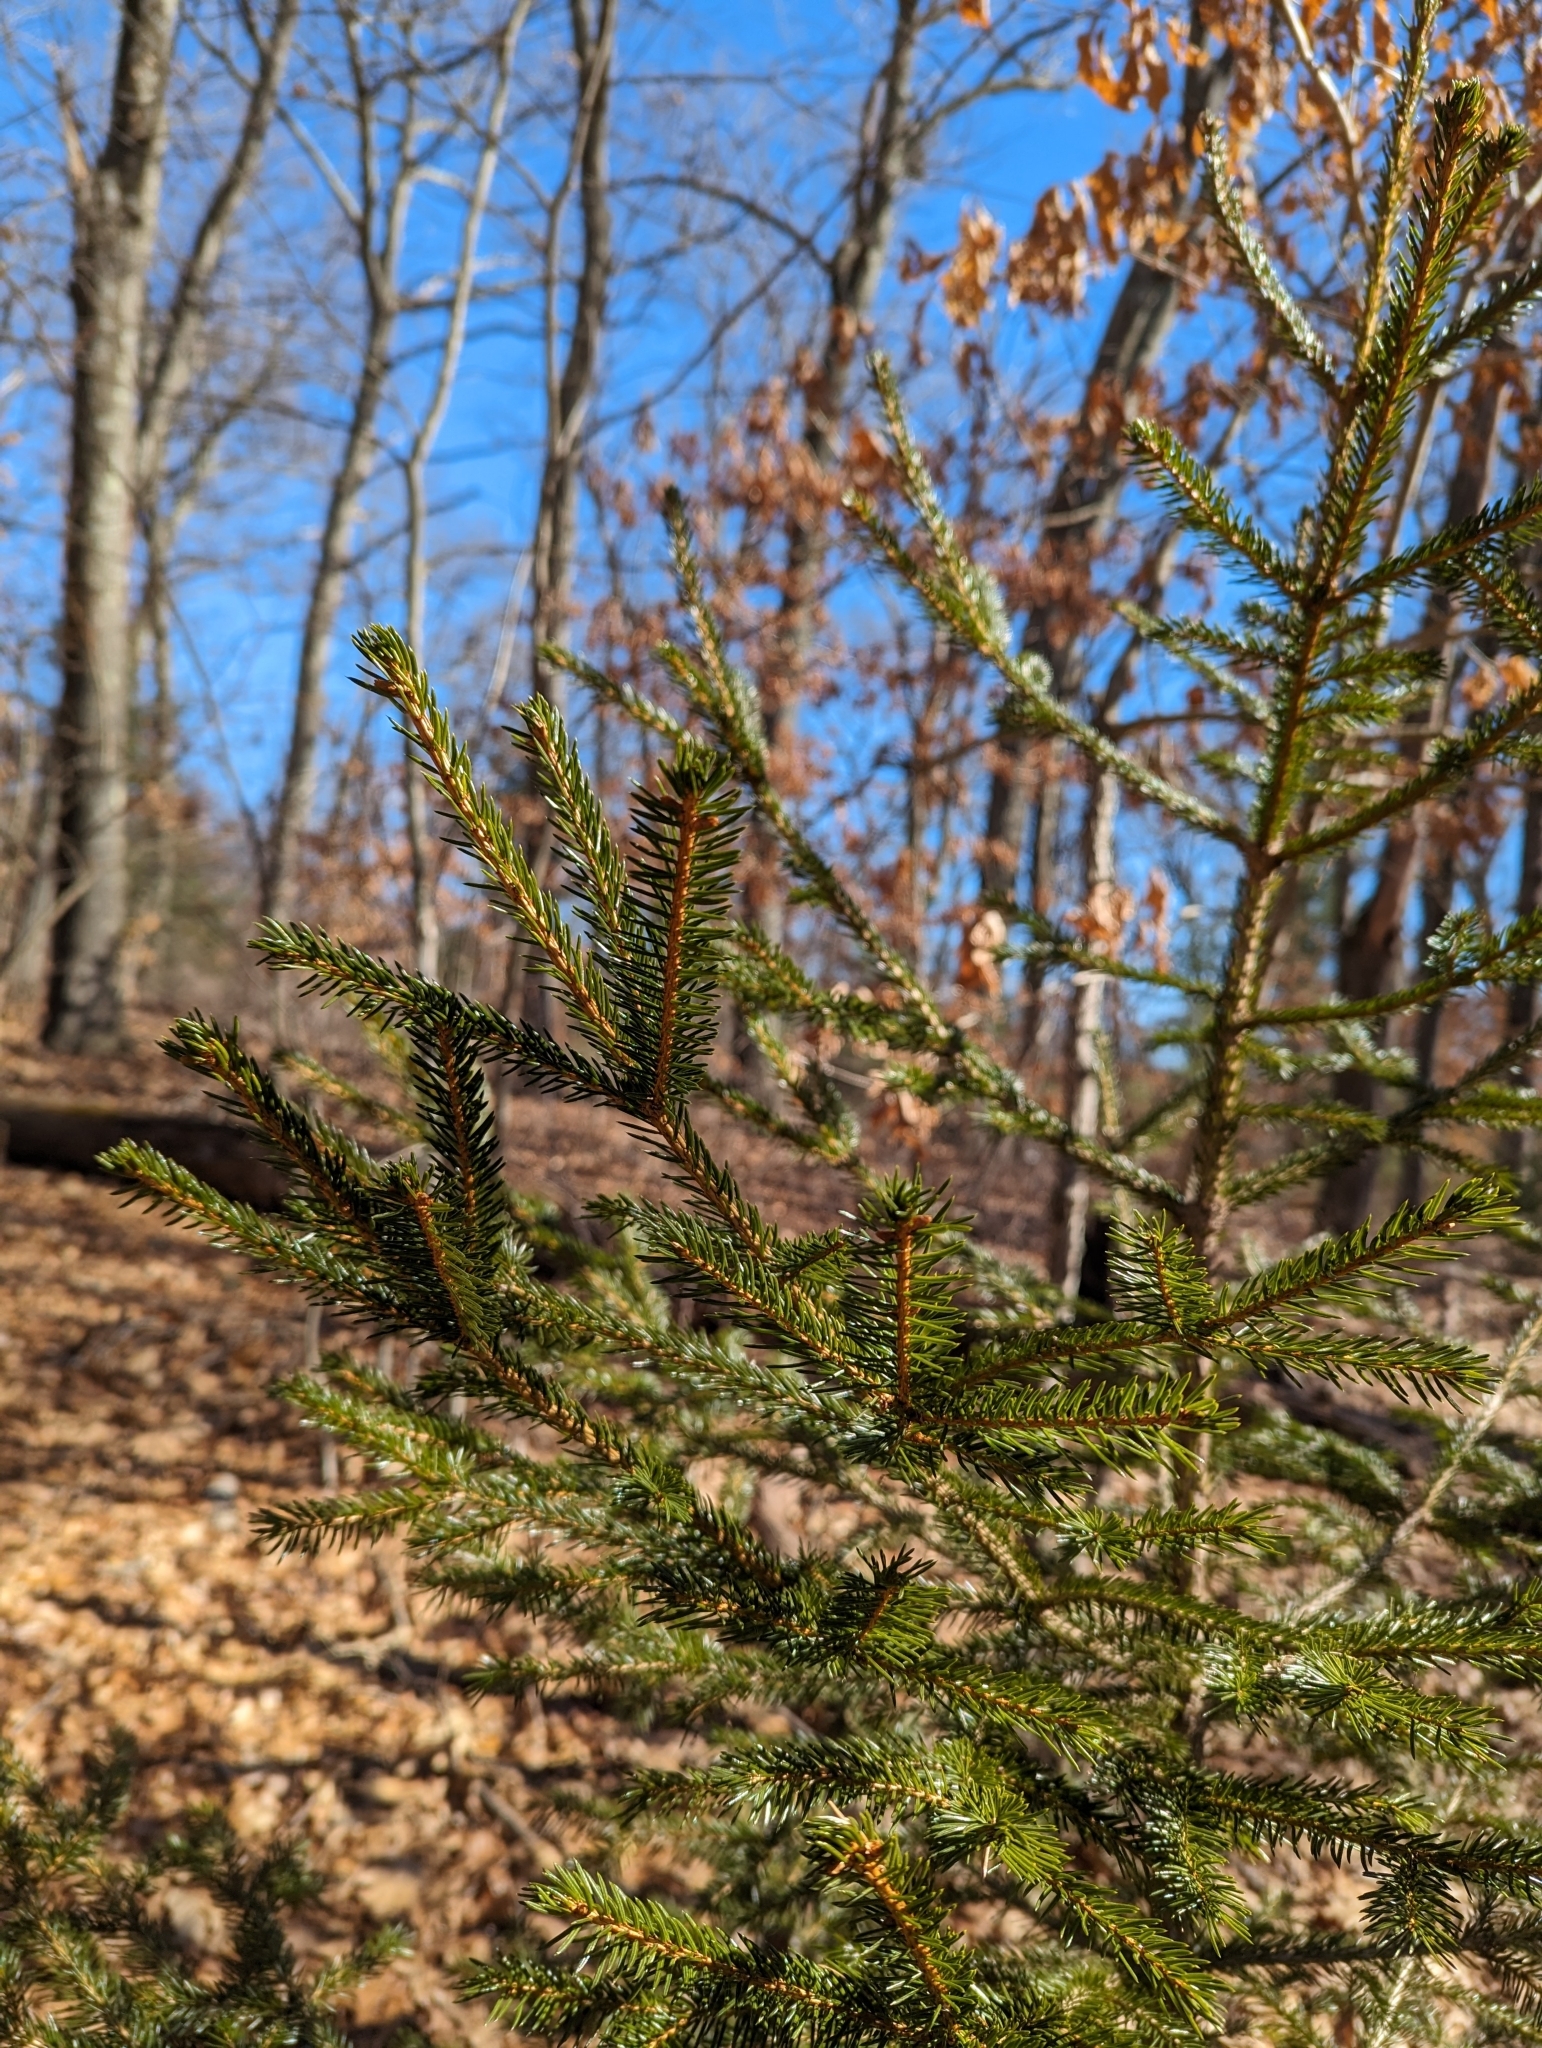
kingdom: Plantae
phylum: Tracheophyta
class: Pinopsida
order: Pinales
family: Pinaceae
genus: Picea
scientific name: Picea rubens
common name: Red spruce
